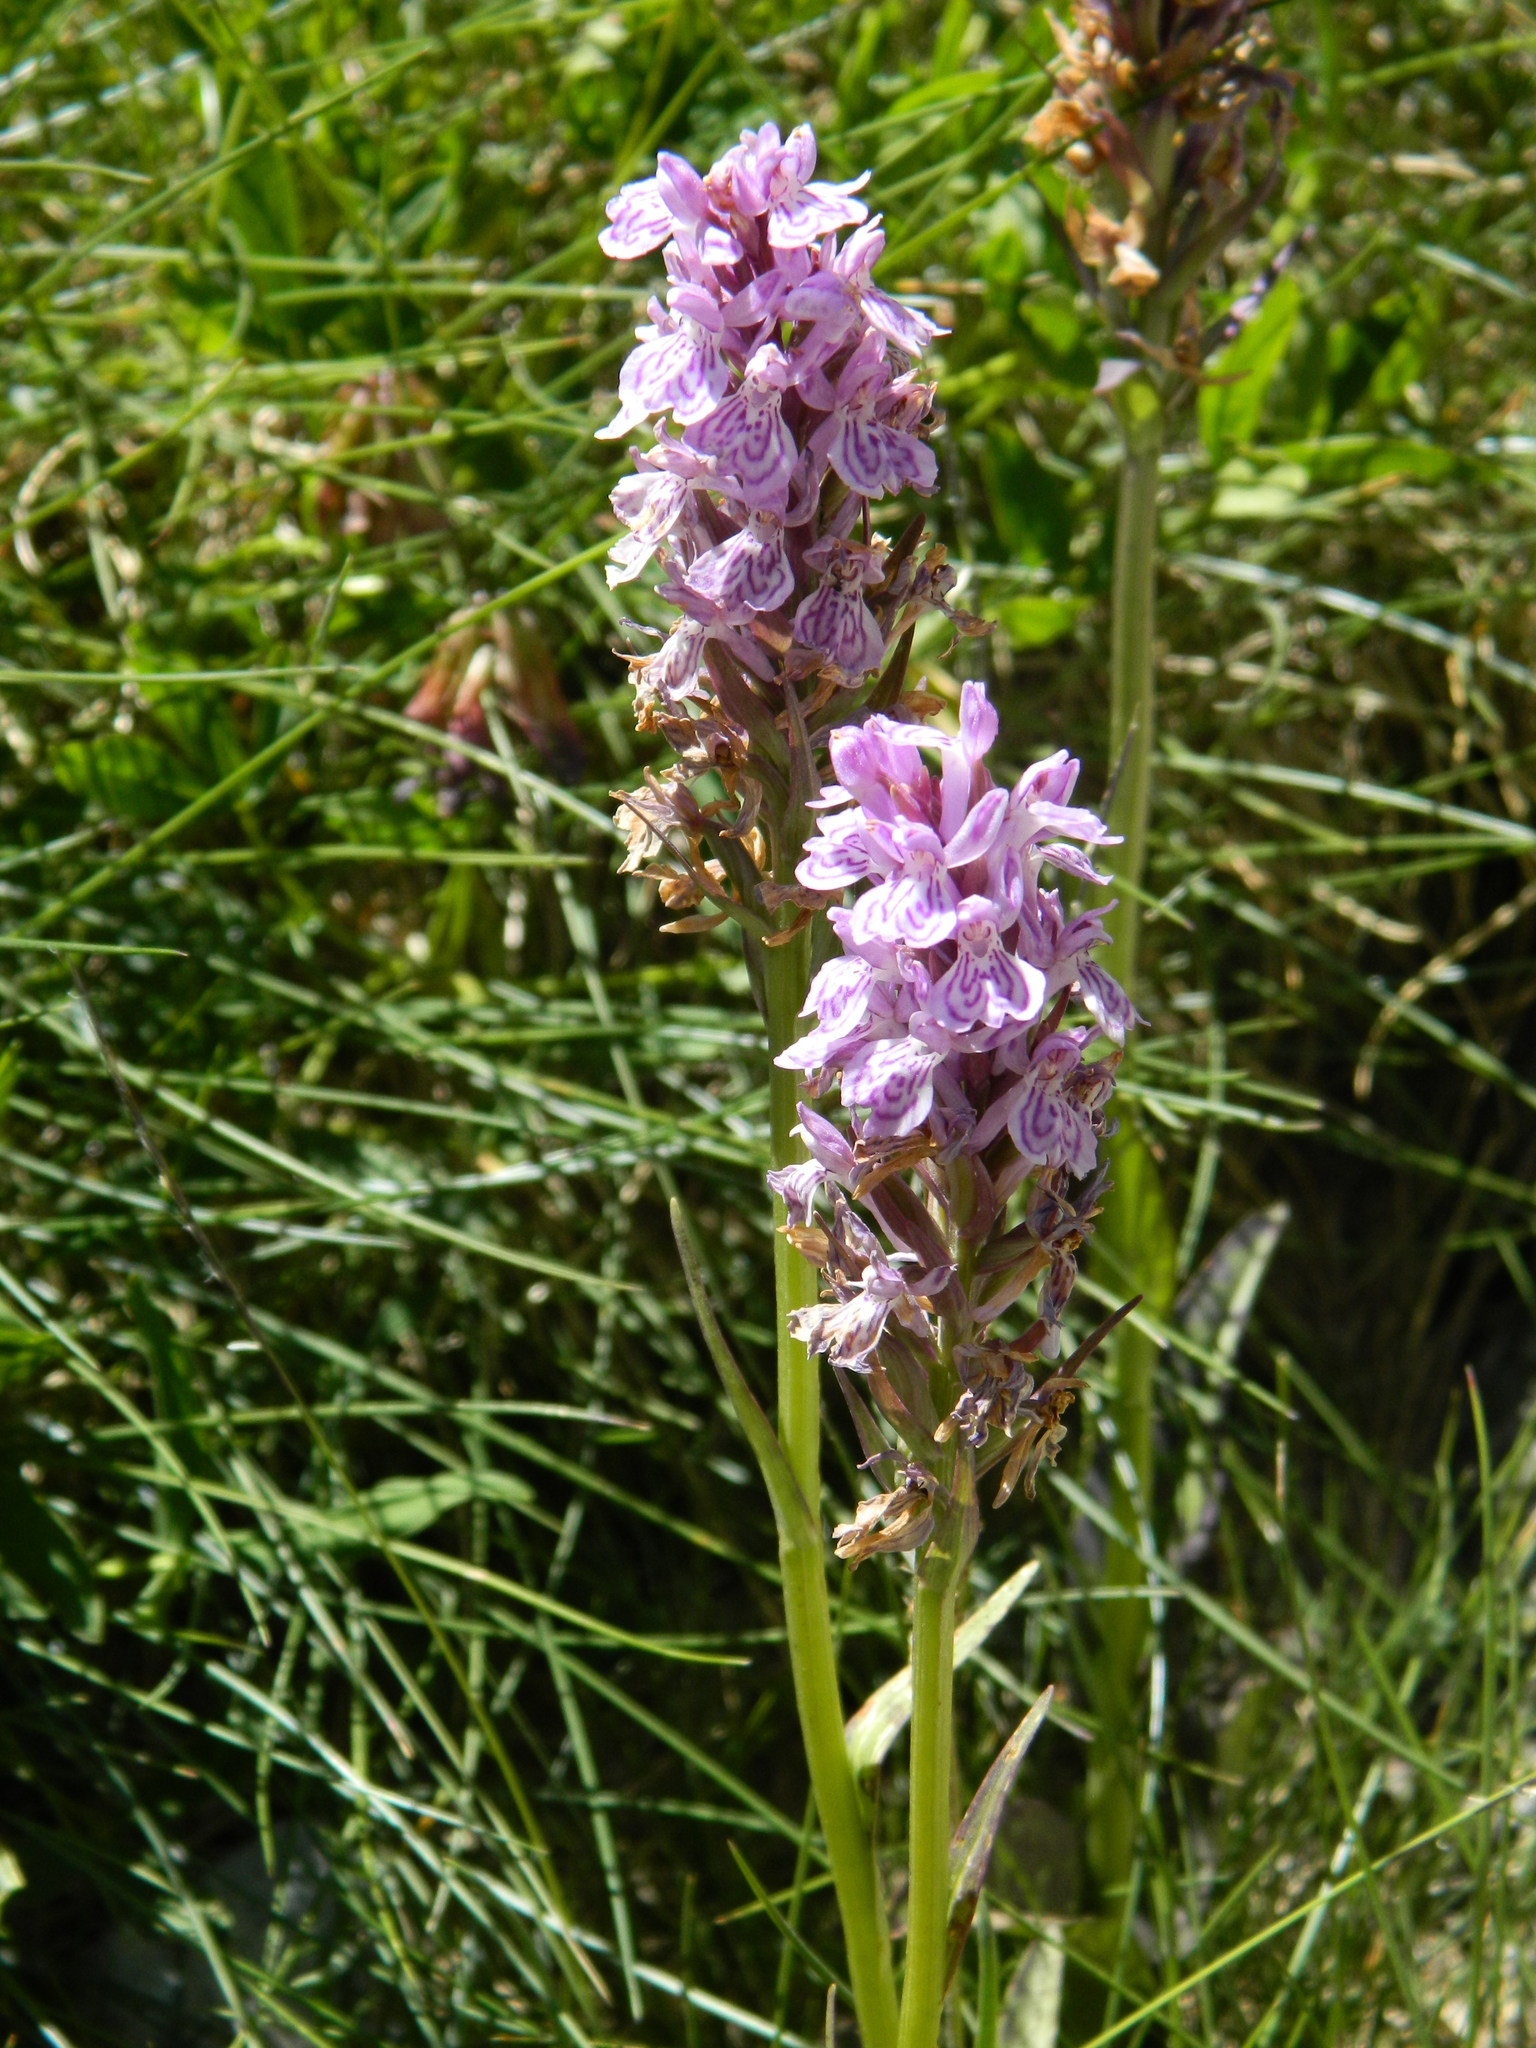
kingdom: Plantae
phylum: Tracheophyta
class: Liliopsida
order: Asparagales
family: Orchidaceae
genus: Dactylorhiza
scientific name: Dactylorhiza maculata
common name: Heath spotted-orchid
